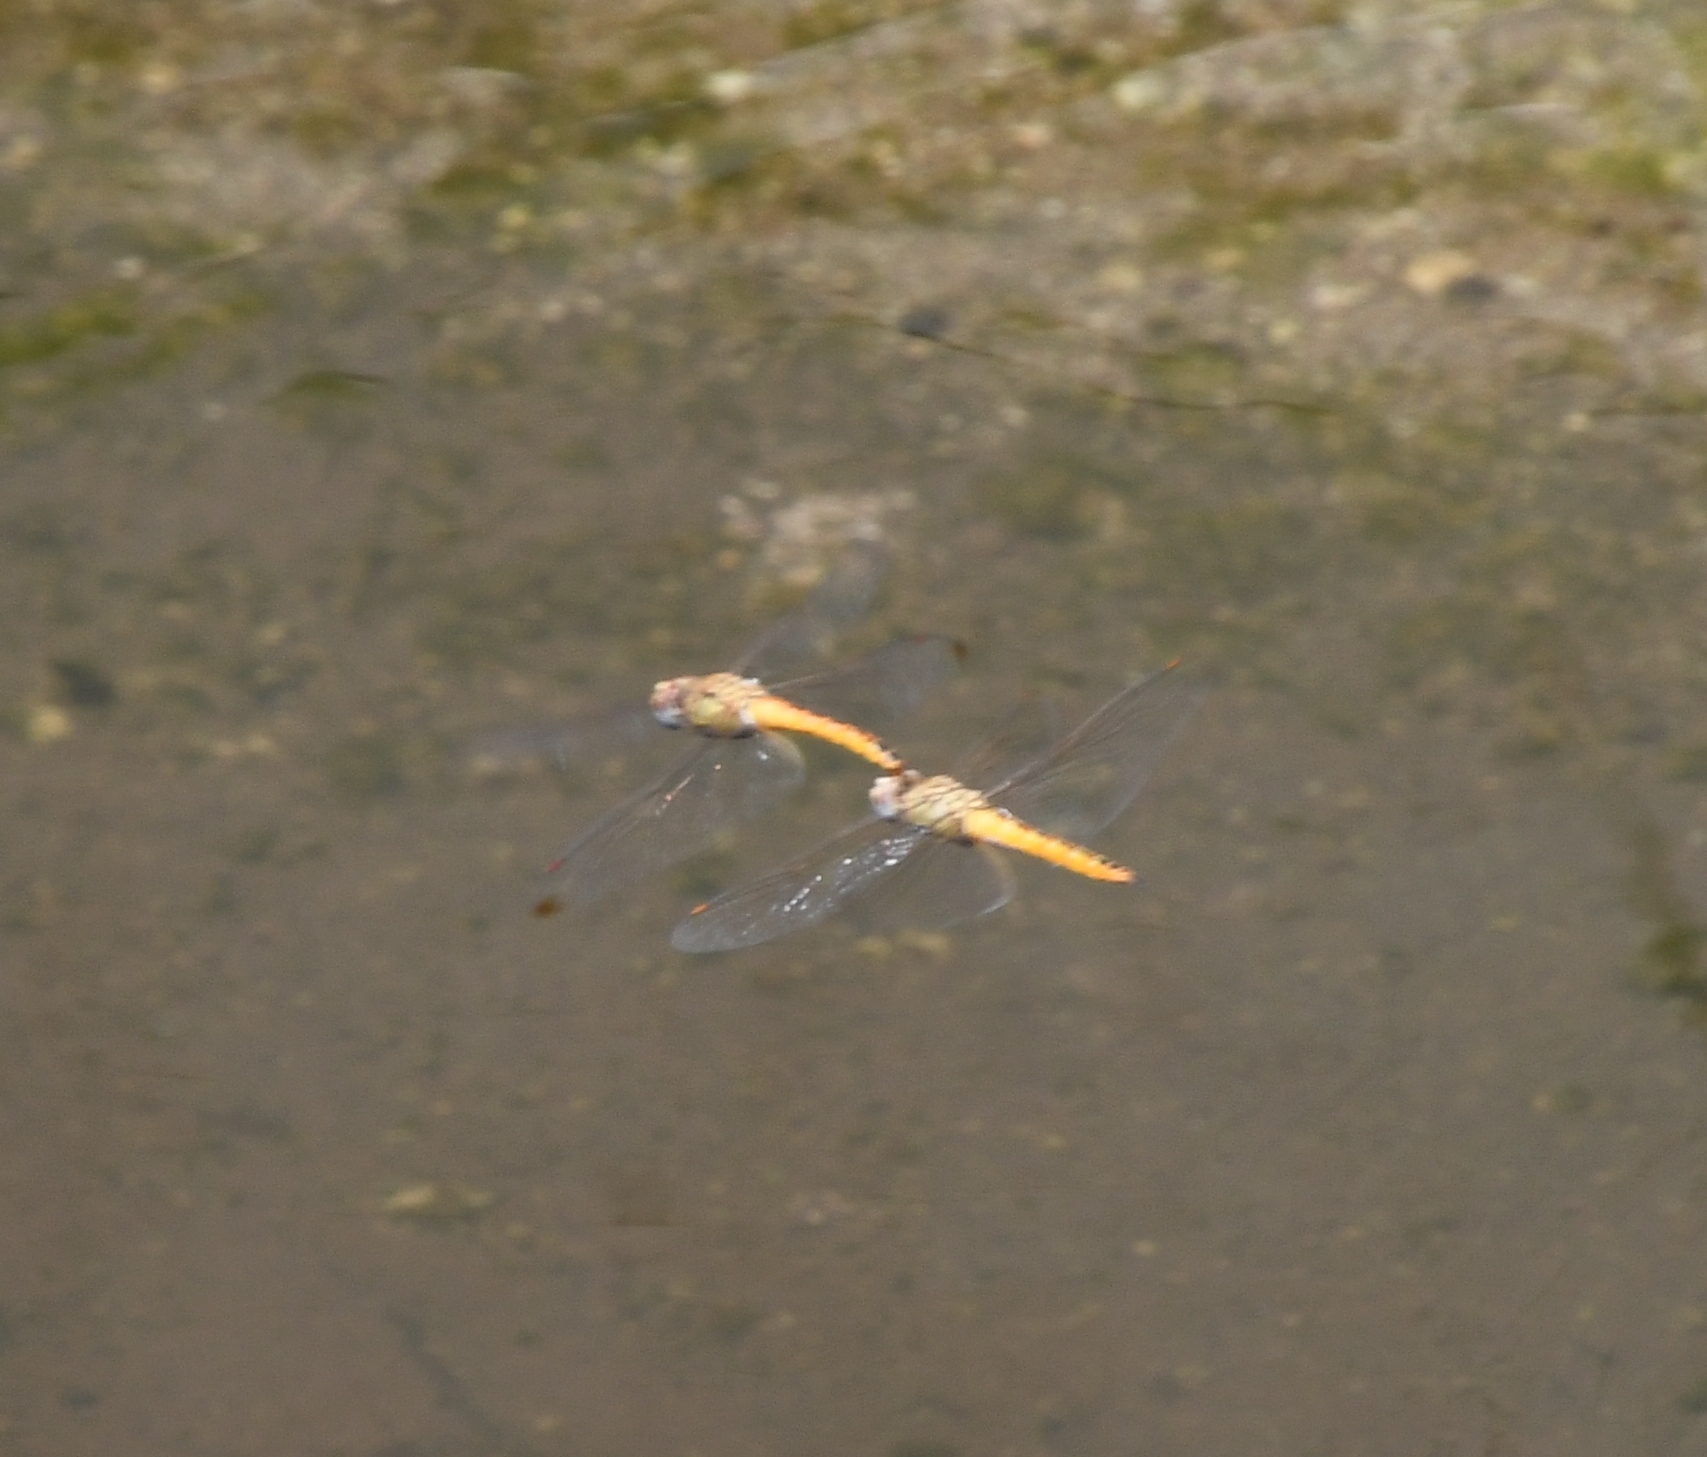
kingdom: Animalia
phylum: Arthropoda
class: Insecta
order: Odonata
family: Libellulidae
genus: Pantala
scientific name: Pantala flavescens
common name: Wandering glider
